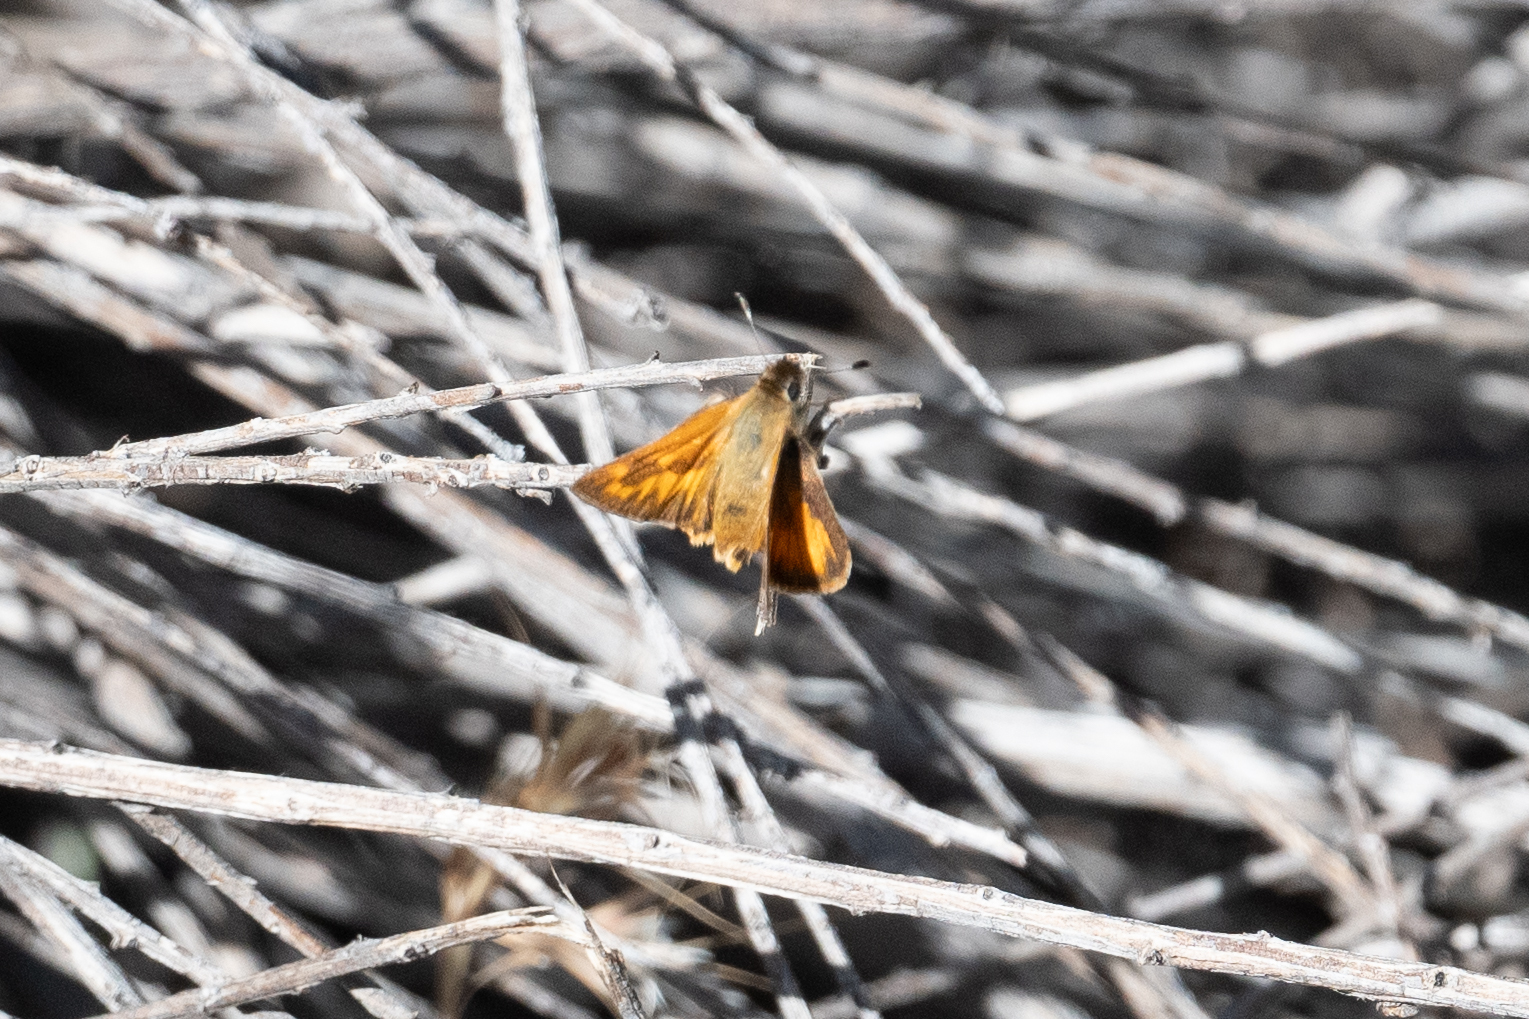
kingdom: Animalia
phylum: Arthropoda
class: Insecta
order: Lepidoptera
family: Hesperiidae
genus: Ochlodes
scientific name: Ochlodes sylvanoides
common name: Woodland skipper
